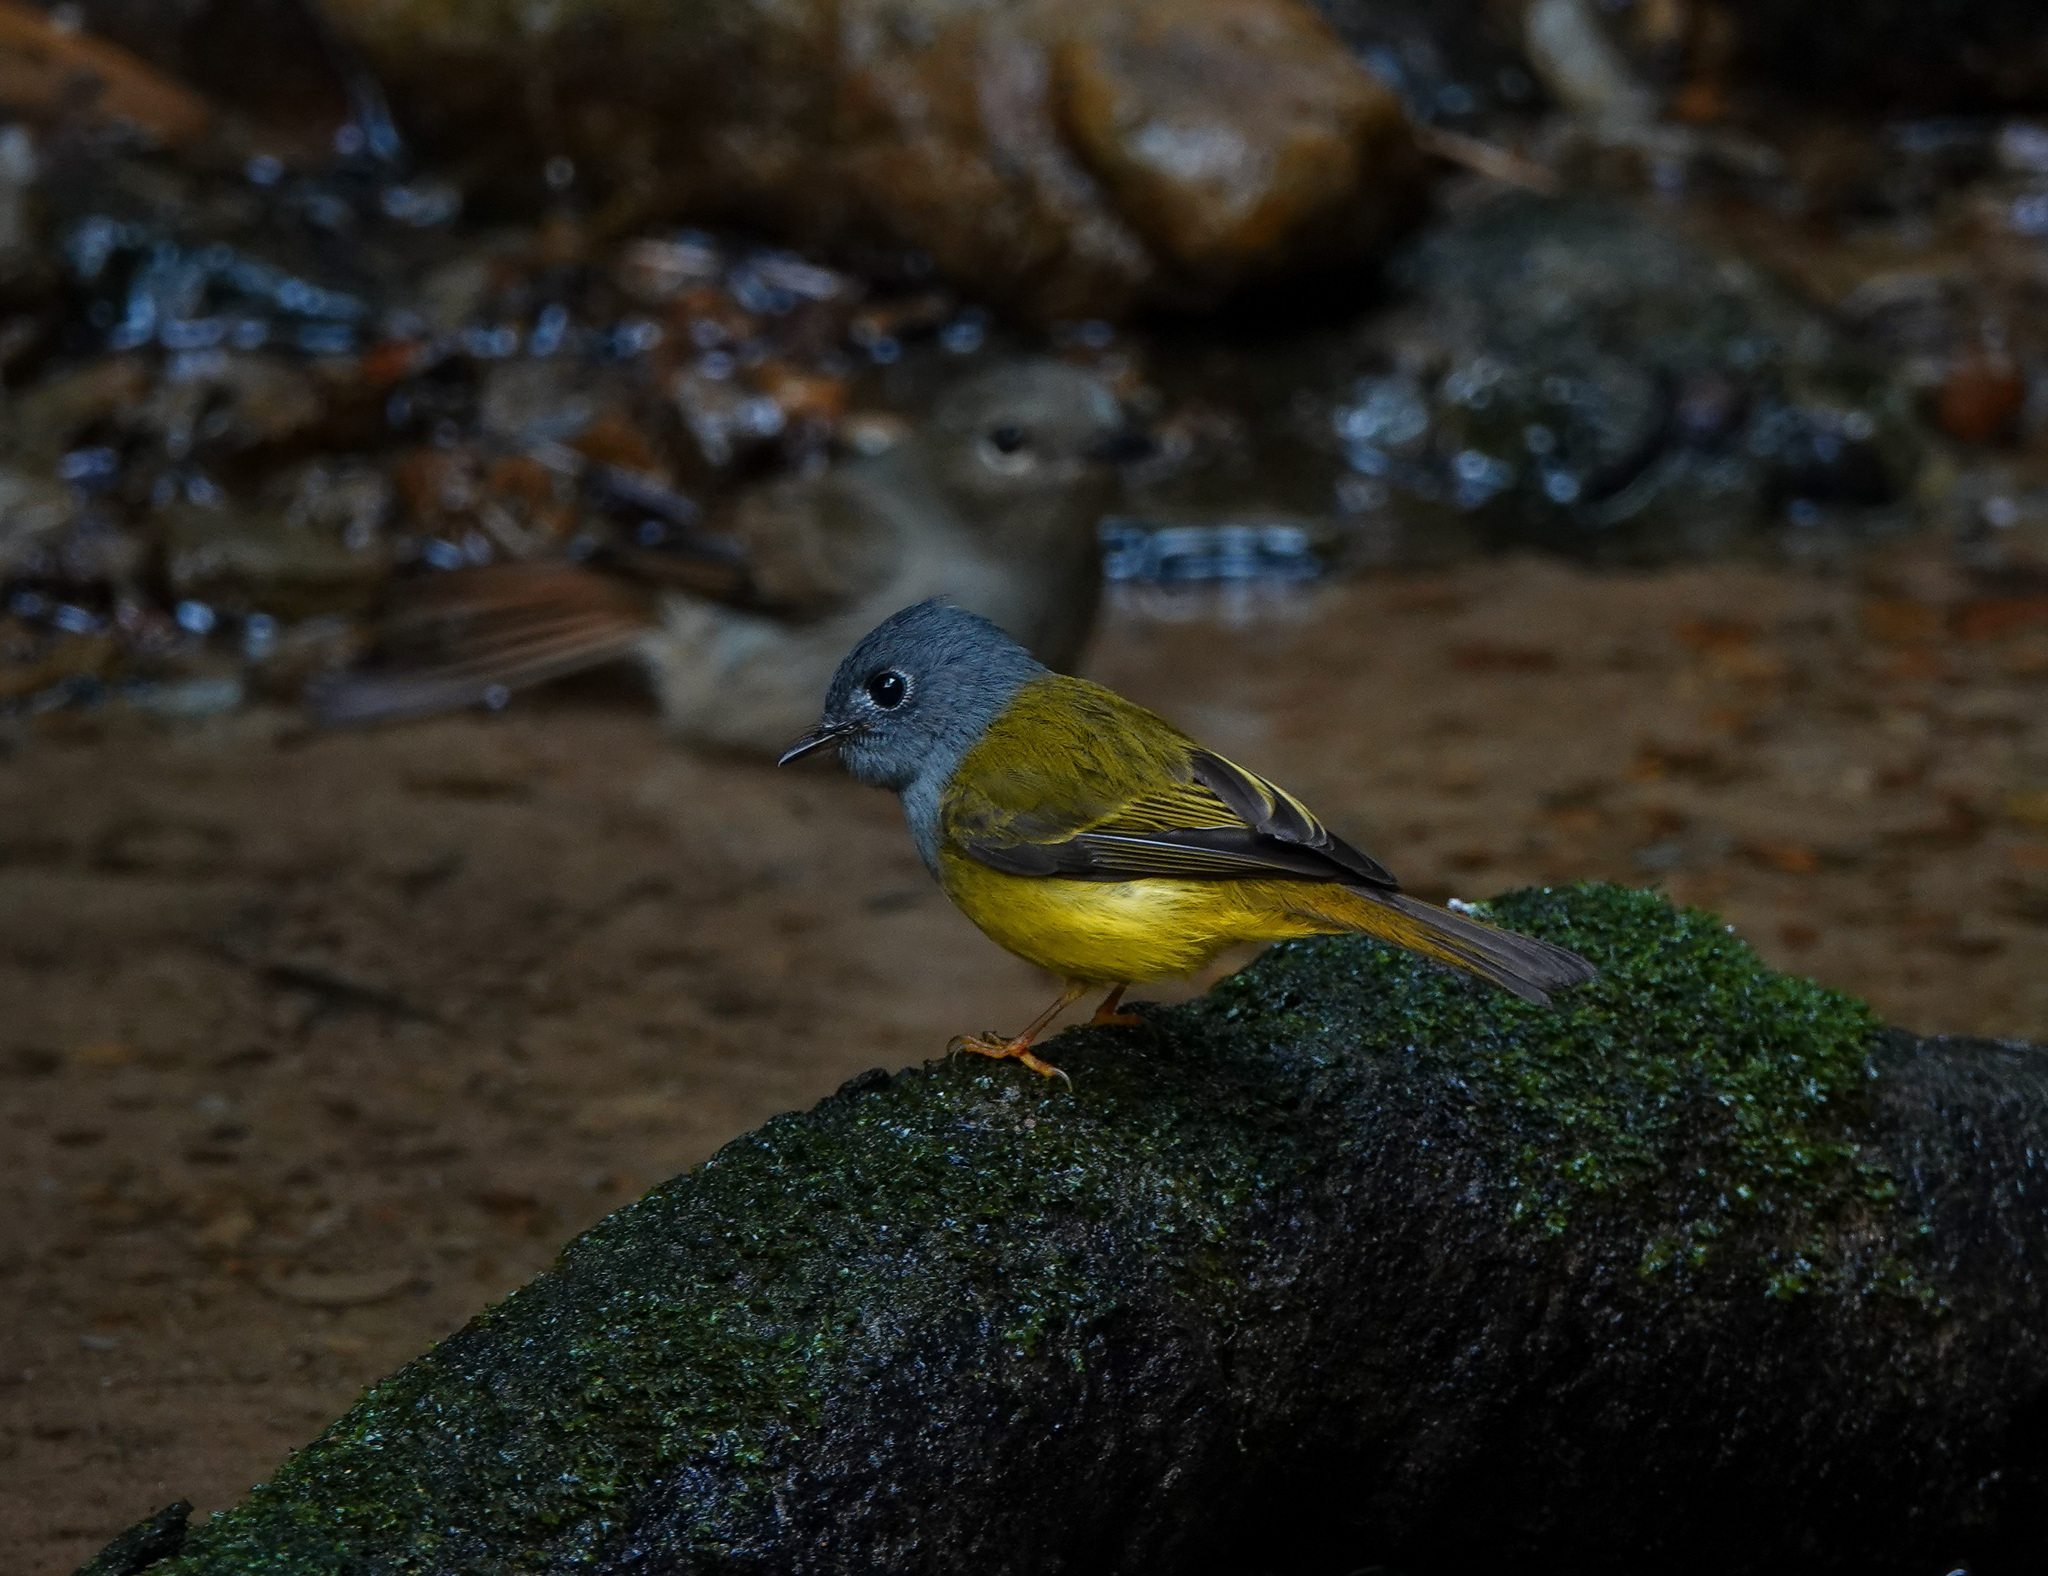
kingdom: Animalia
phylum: Chordata
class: Aves
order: Passeriformes
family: Stenostiridae
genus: Culicicapa
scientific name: Culicicapa ceylonensis
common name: Grey-headed canary-flycatcher
